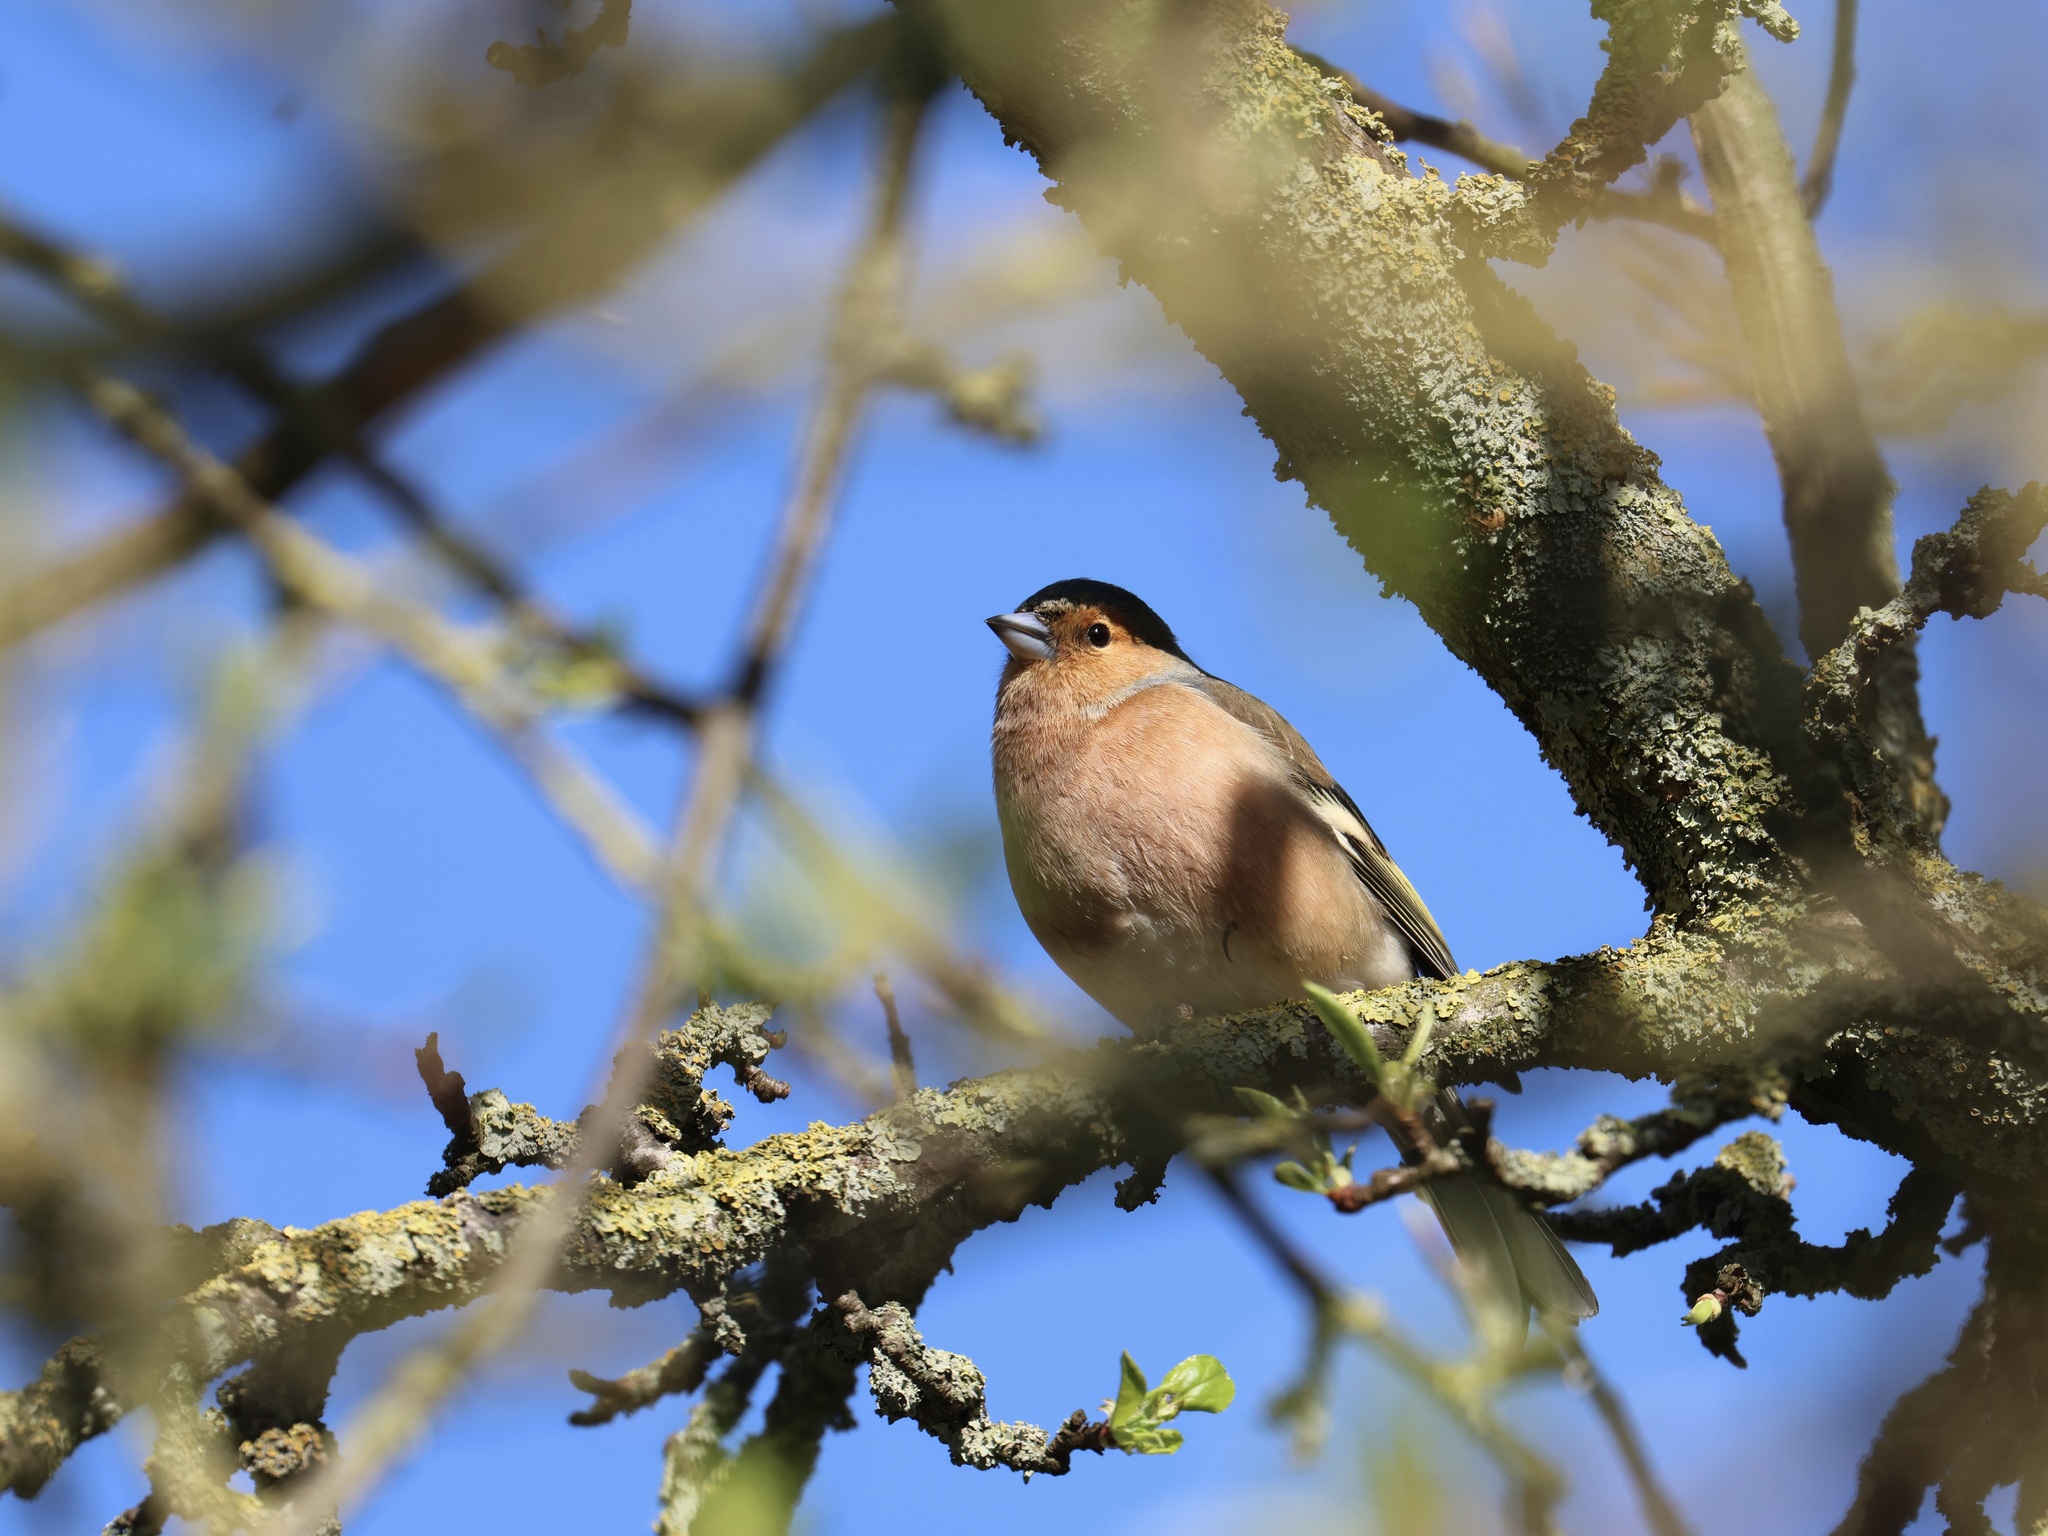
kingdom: Animalia
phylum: Chordata
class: Aves
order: Passeriformes
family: Fringillidae
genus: Fringilla
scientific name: Fringilla coelebs
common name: Common chaffinch
